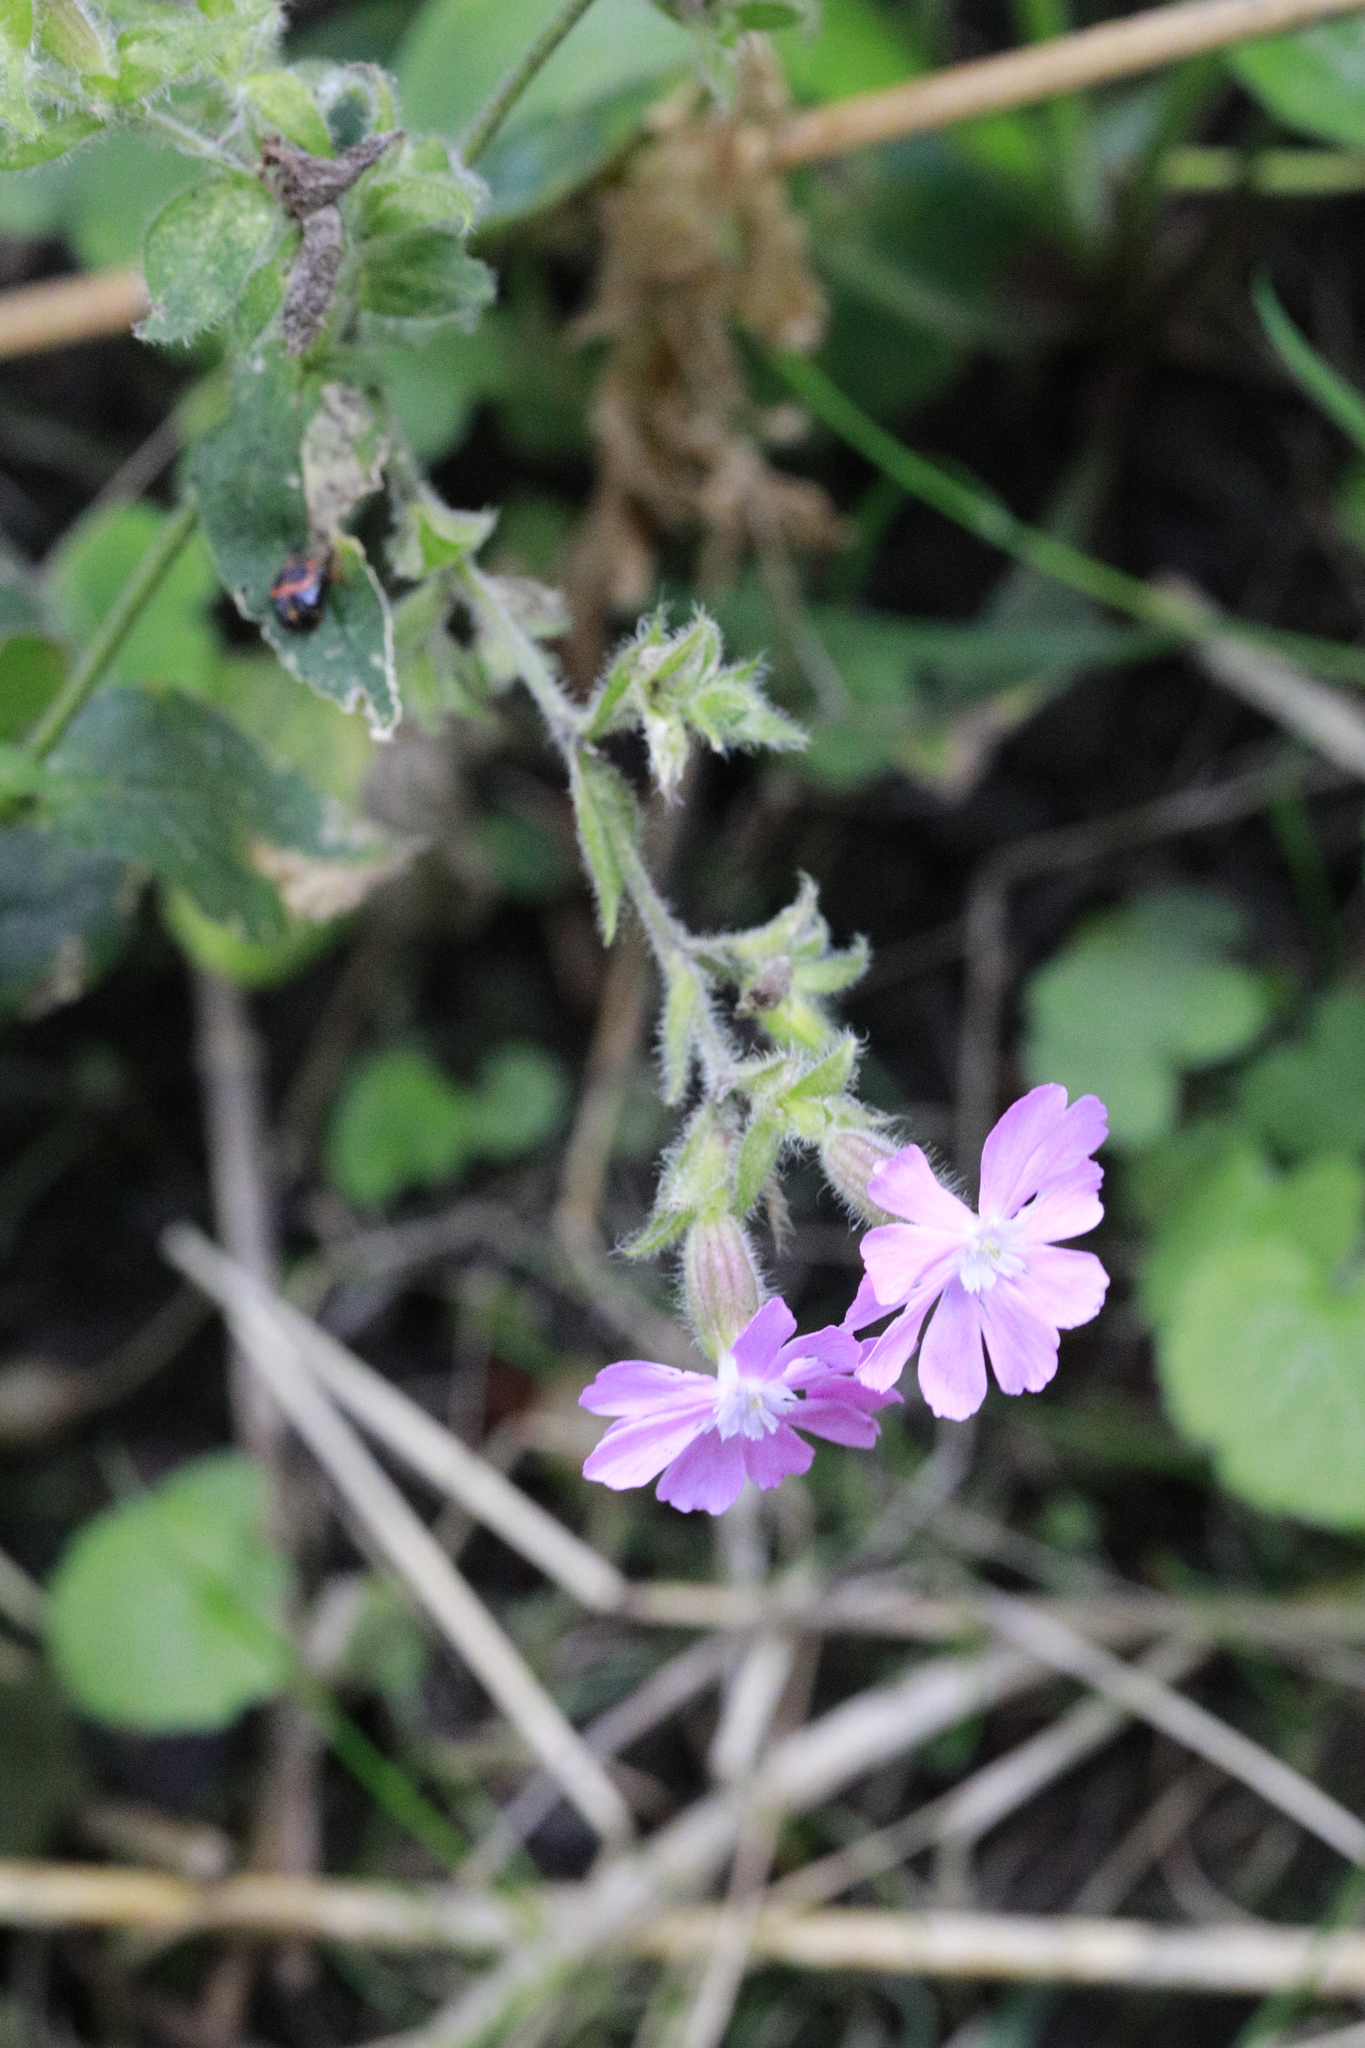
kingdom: Plantae
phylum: Tracheophyta
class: Magnoliopsida
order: Caryophyllales
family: Caryophyllaceae
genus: Silene
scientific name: Silene dioica
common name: Red campion
